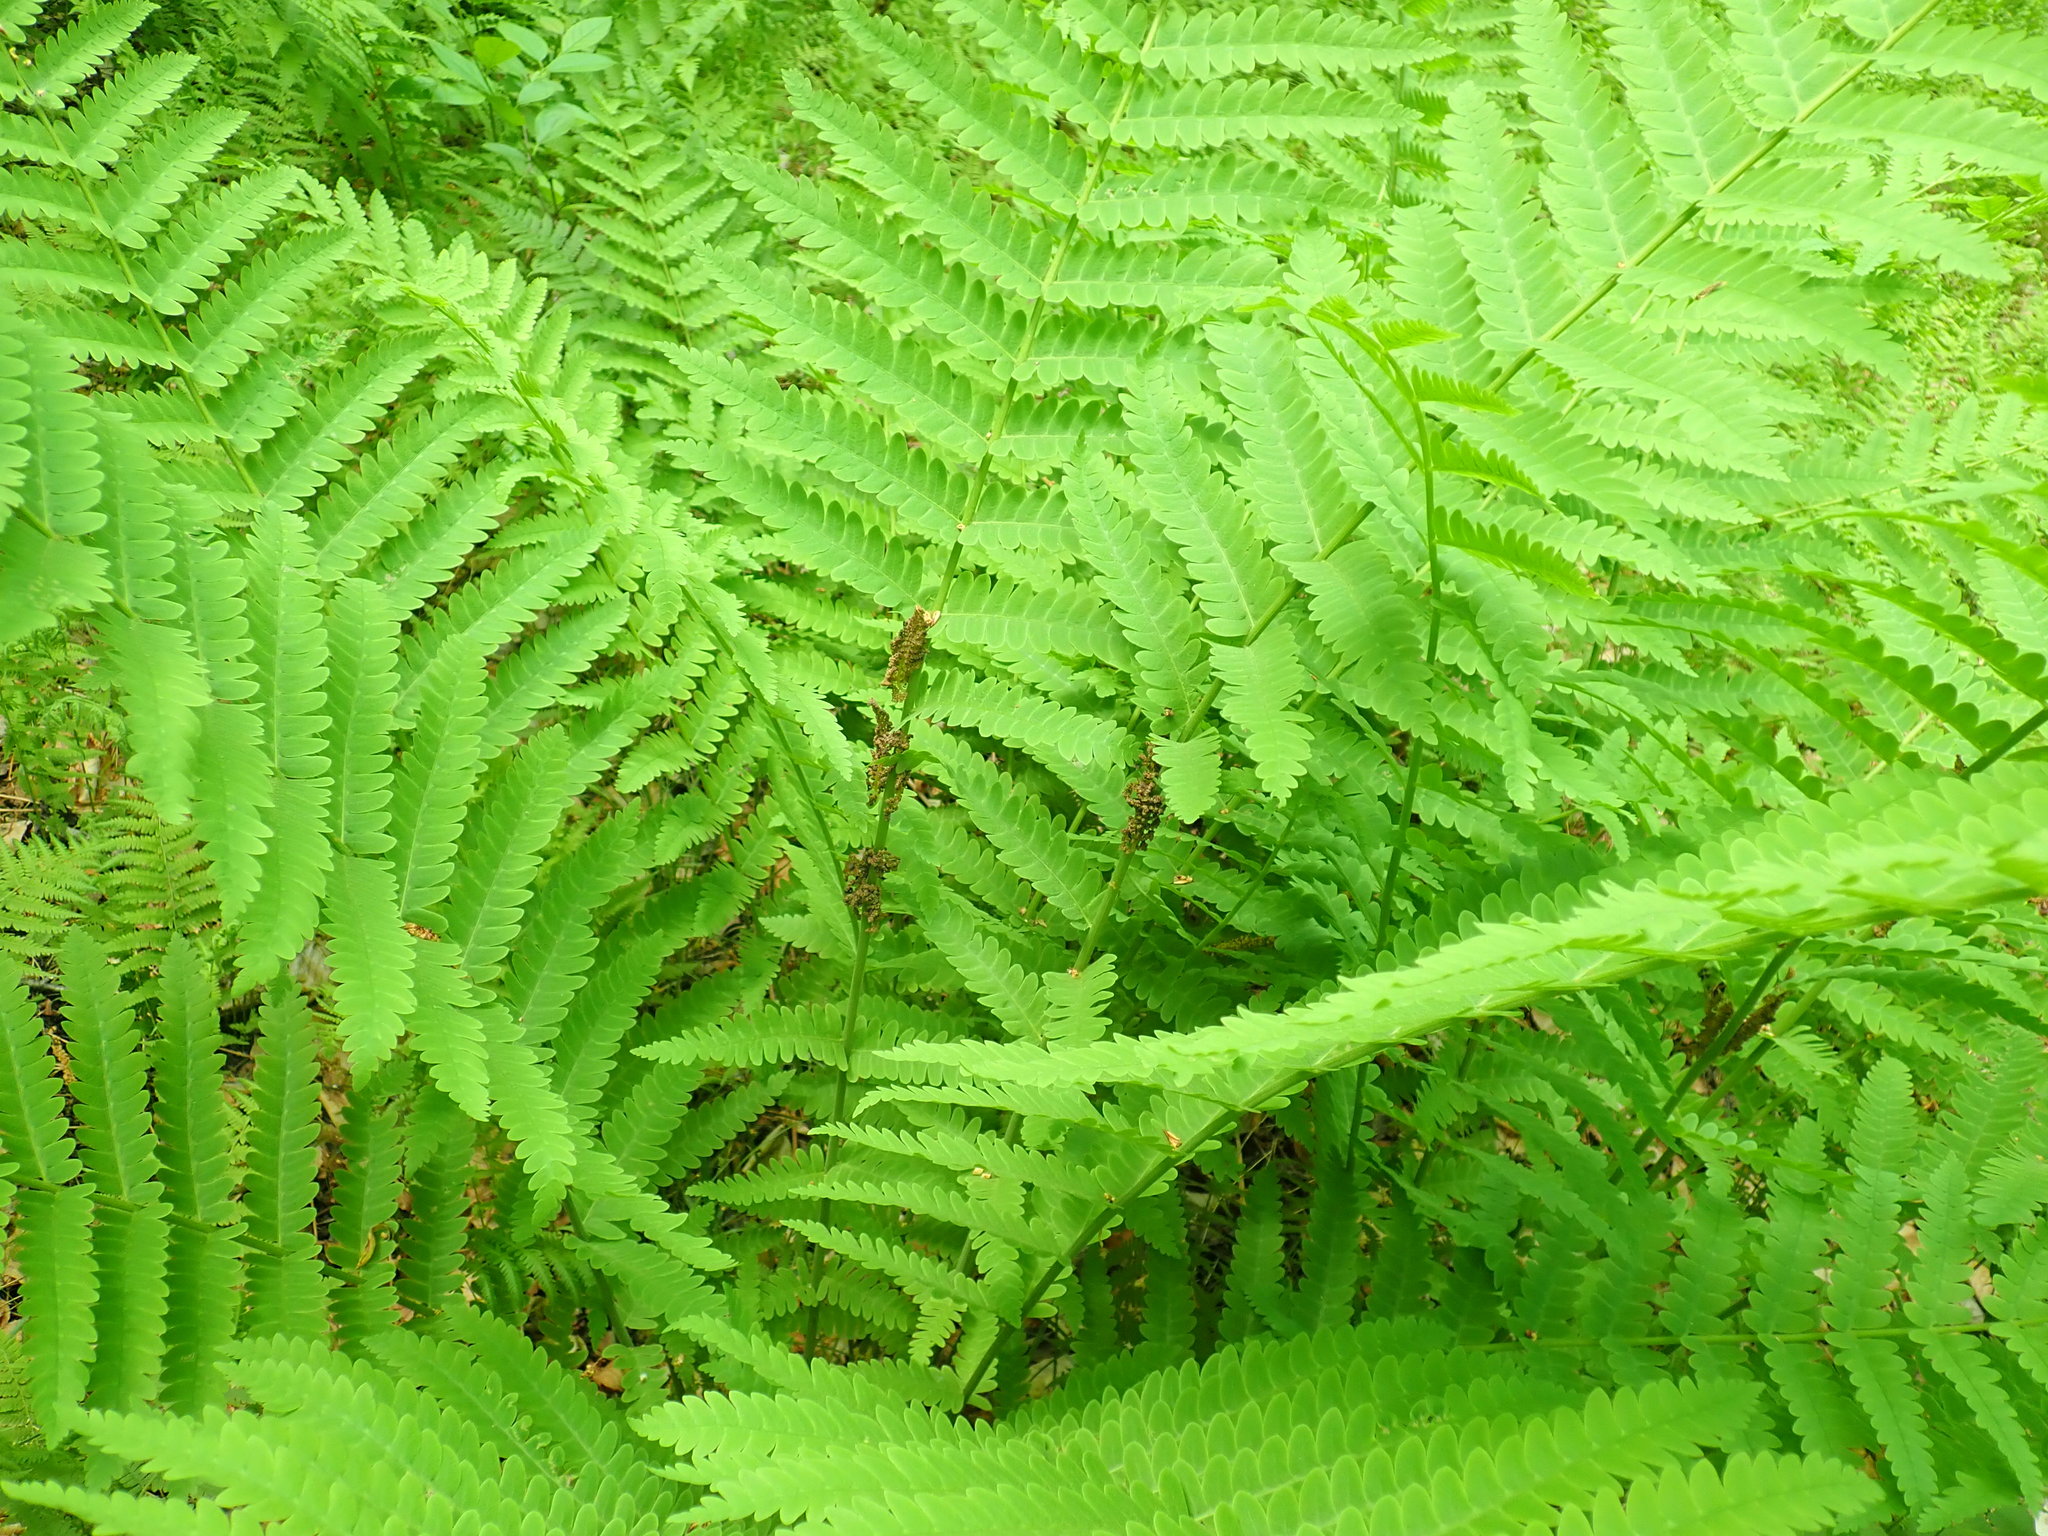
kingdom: Plantae
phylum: Tracheophyta
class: Polypodiopsida
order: Osmundales
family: Osmundaceae
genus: Claytosmunda
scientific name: Claytosmunda claytoniana
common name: Clayton's fern
